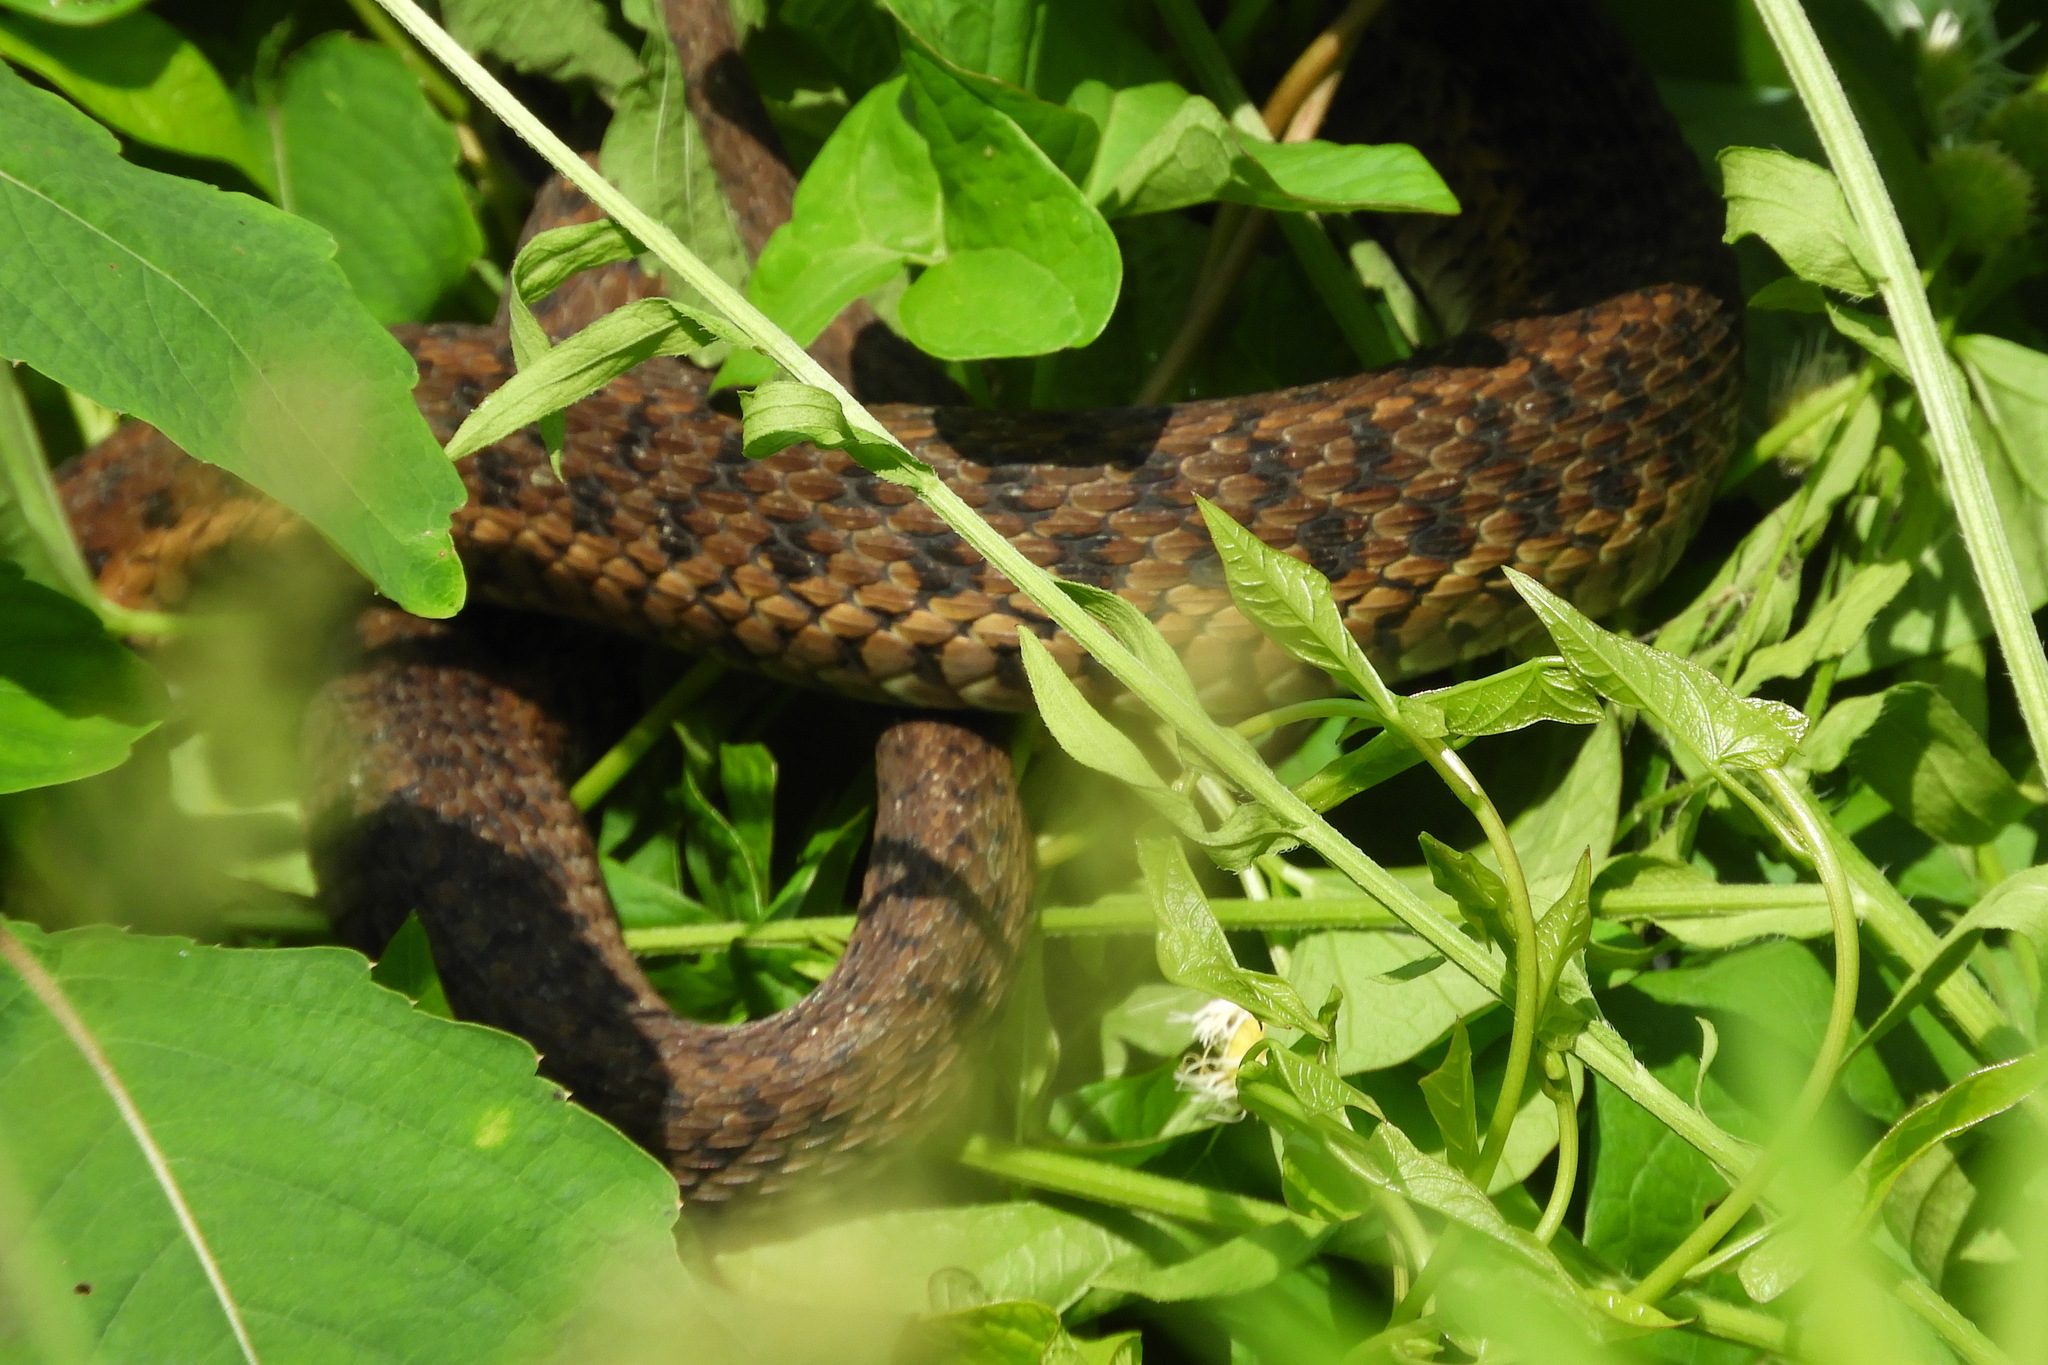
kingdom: Animalia
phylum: Chordata
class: Squamata
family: Colubridae
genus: Thamnophis
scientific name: Thamnophis sirtalis
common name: Common garter snake
